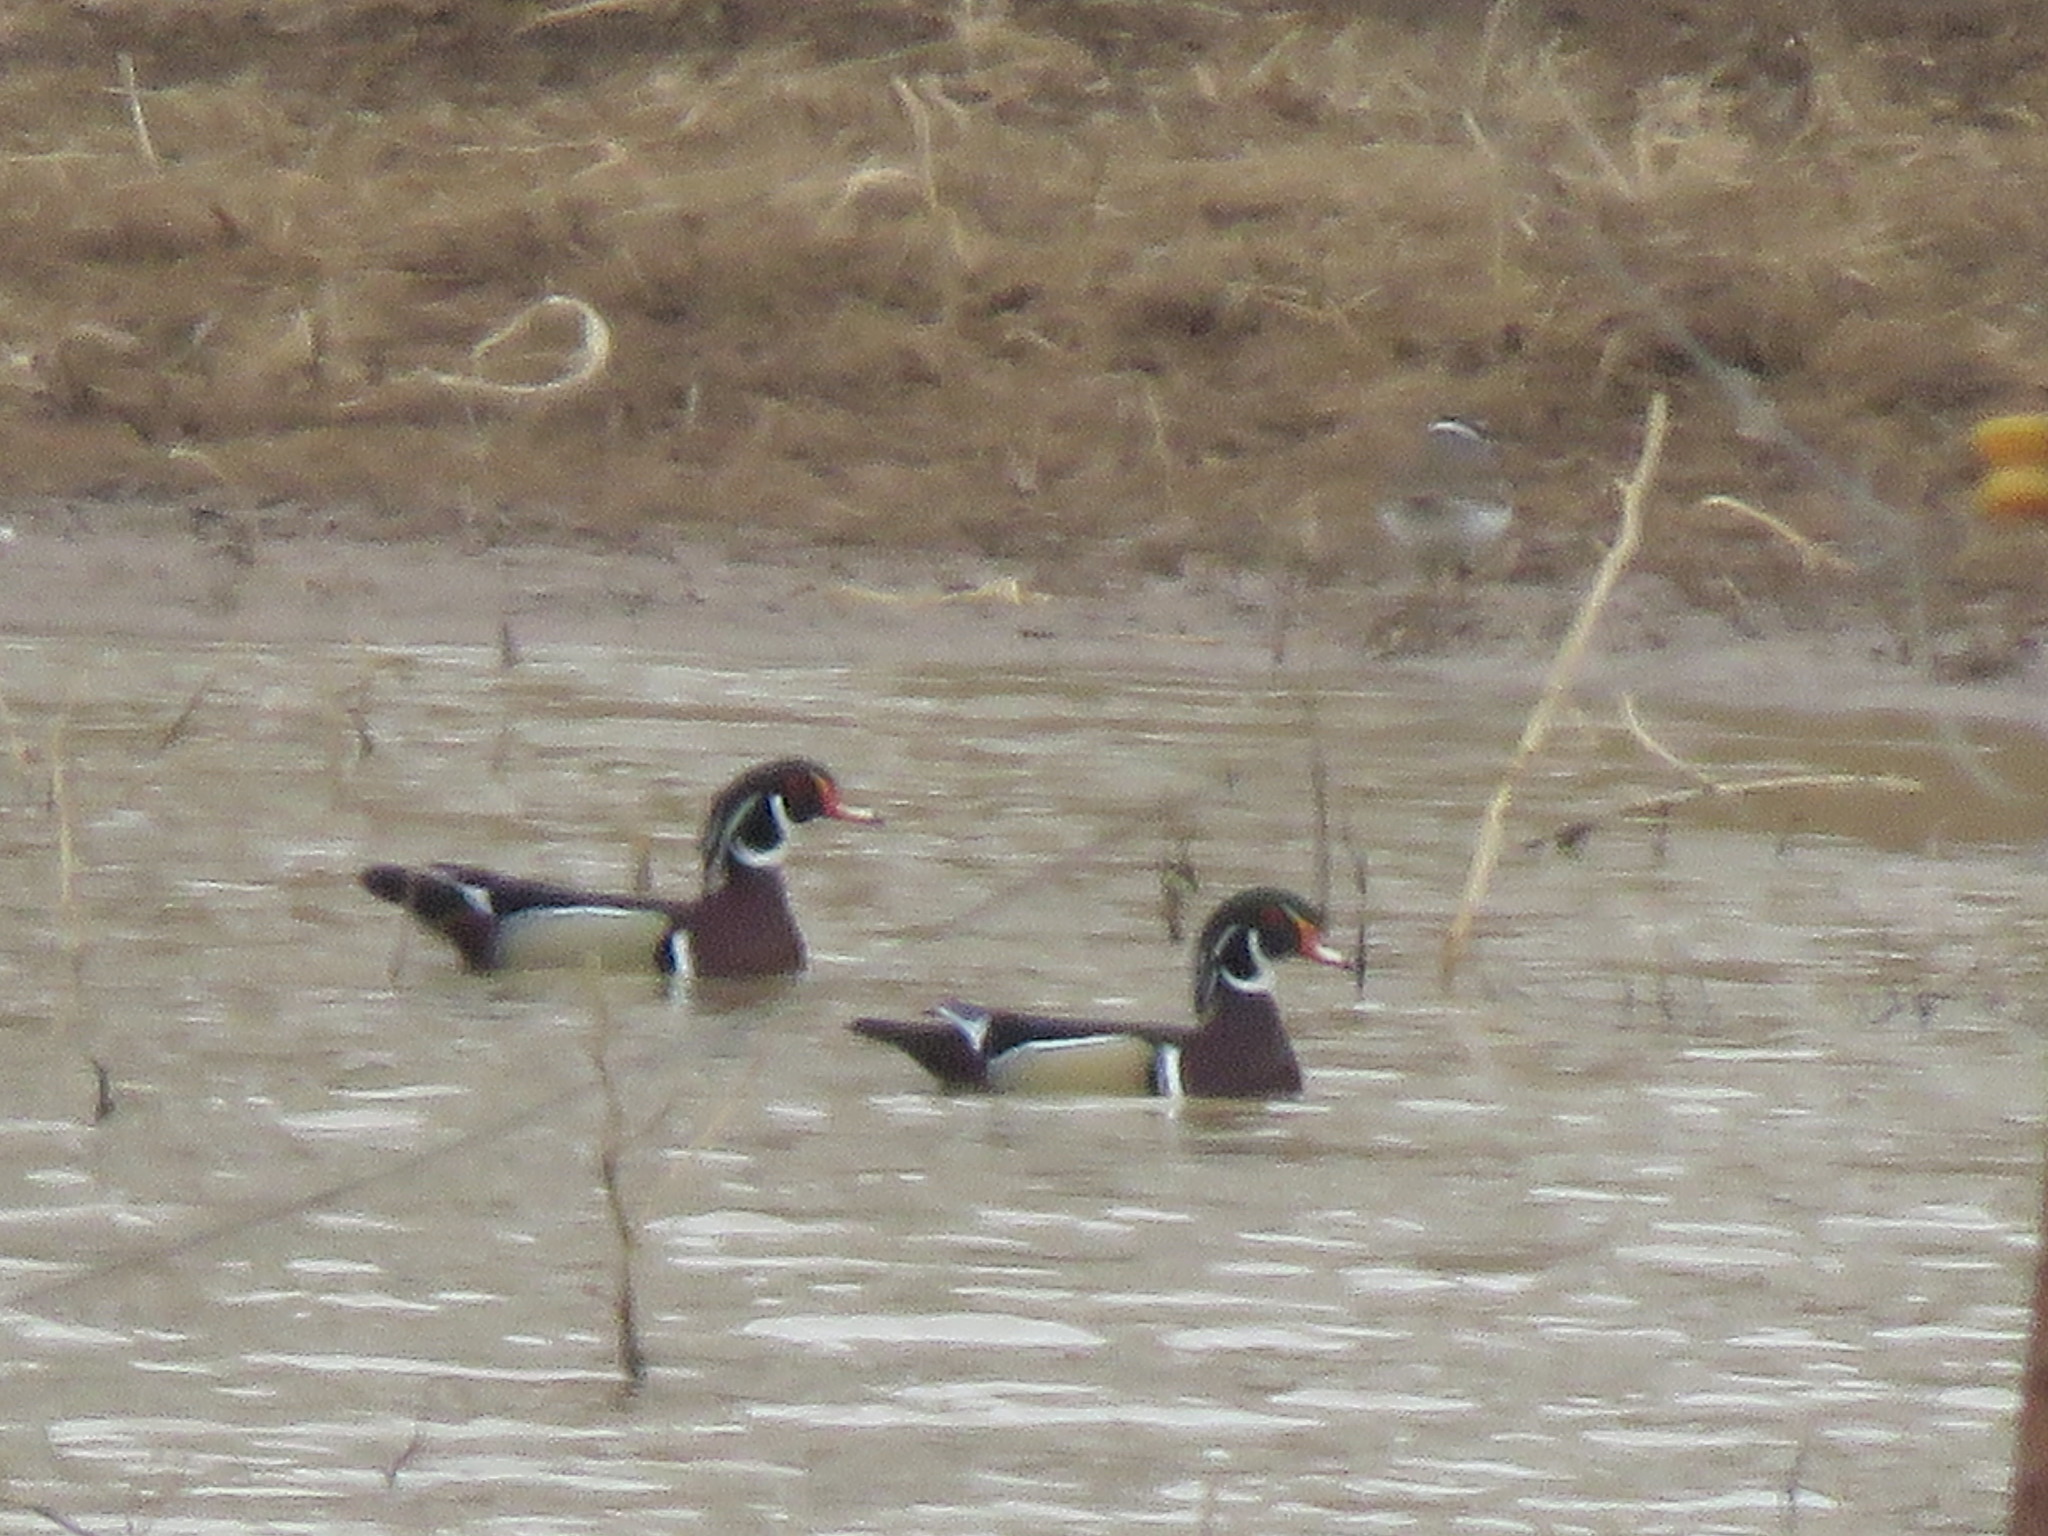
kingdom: Animalia
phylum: Chordata
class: Aves
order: Anseriformes
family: Anatidae
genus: Aix
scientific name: Aix sponsa
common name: Wood duck
